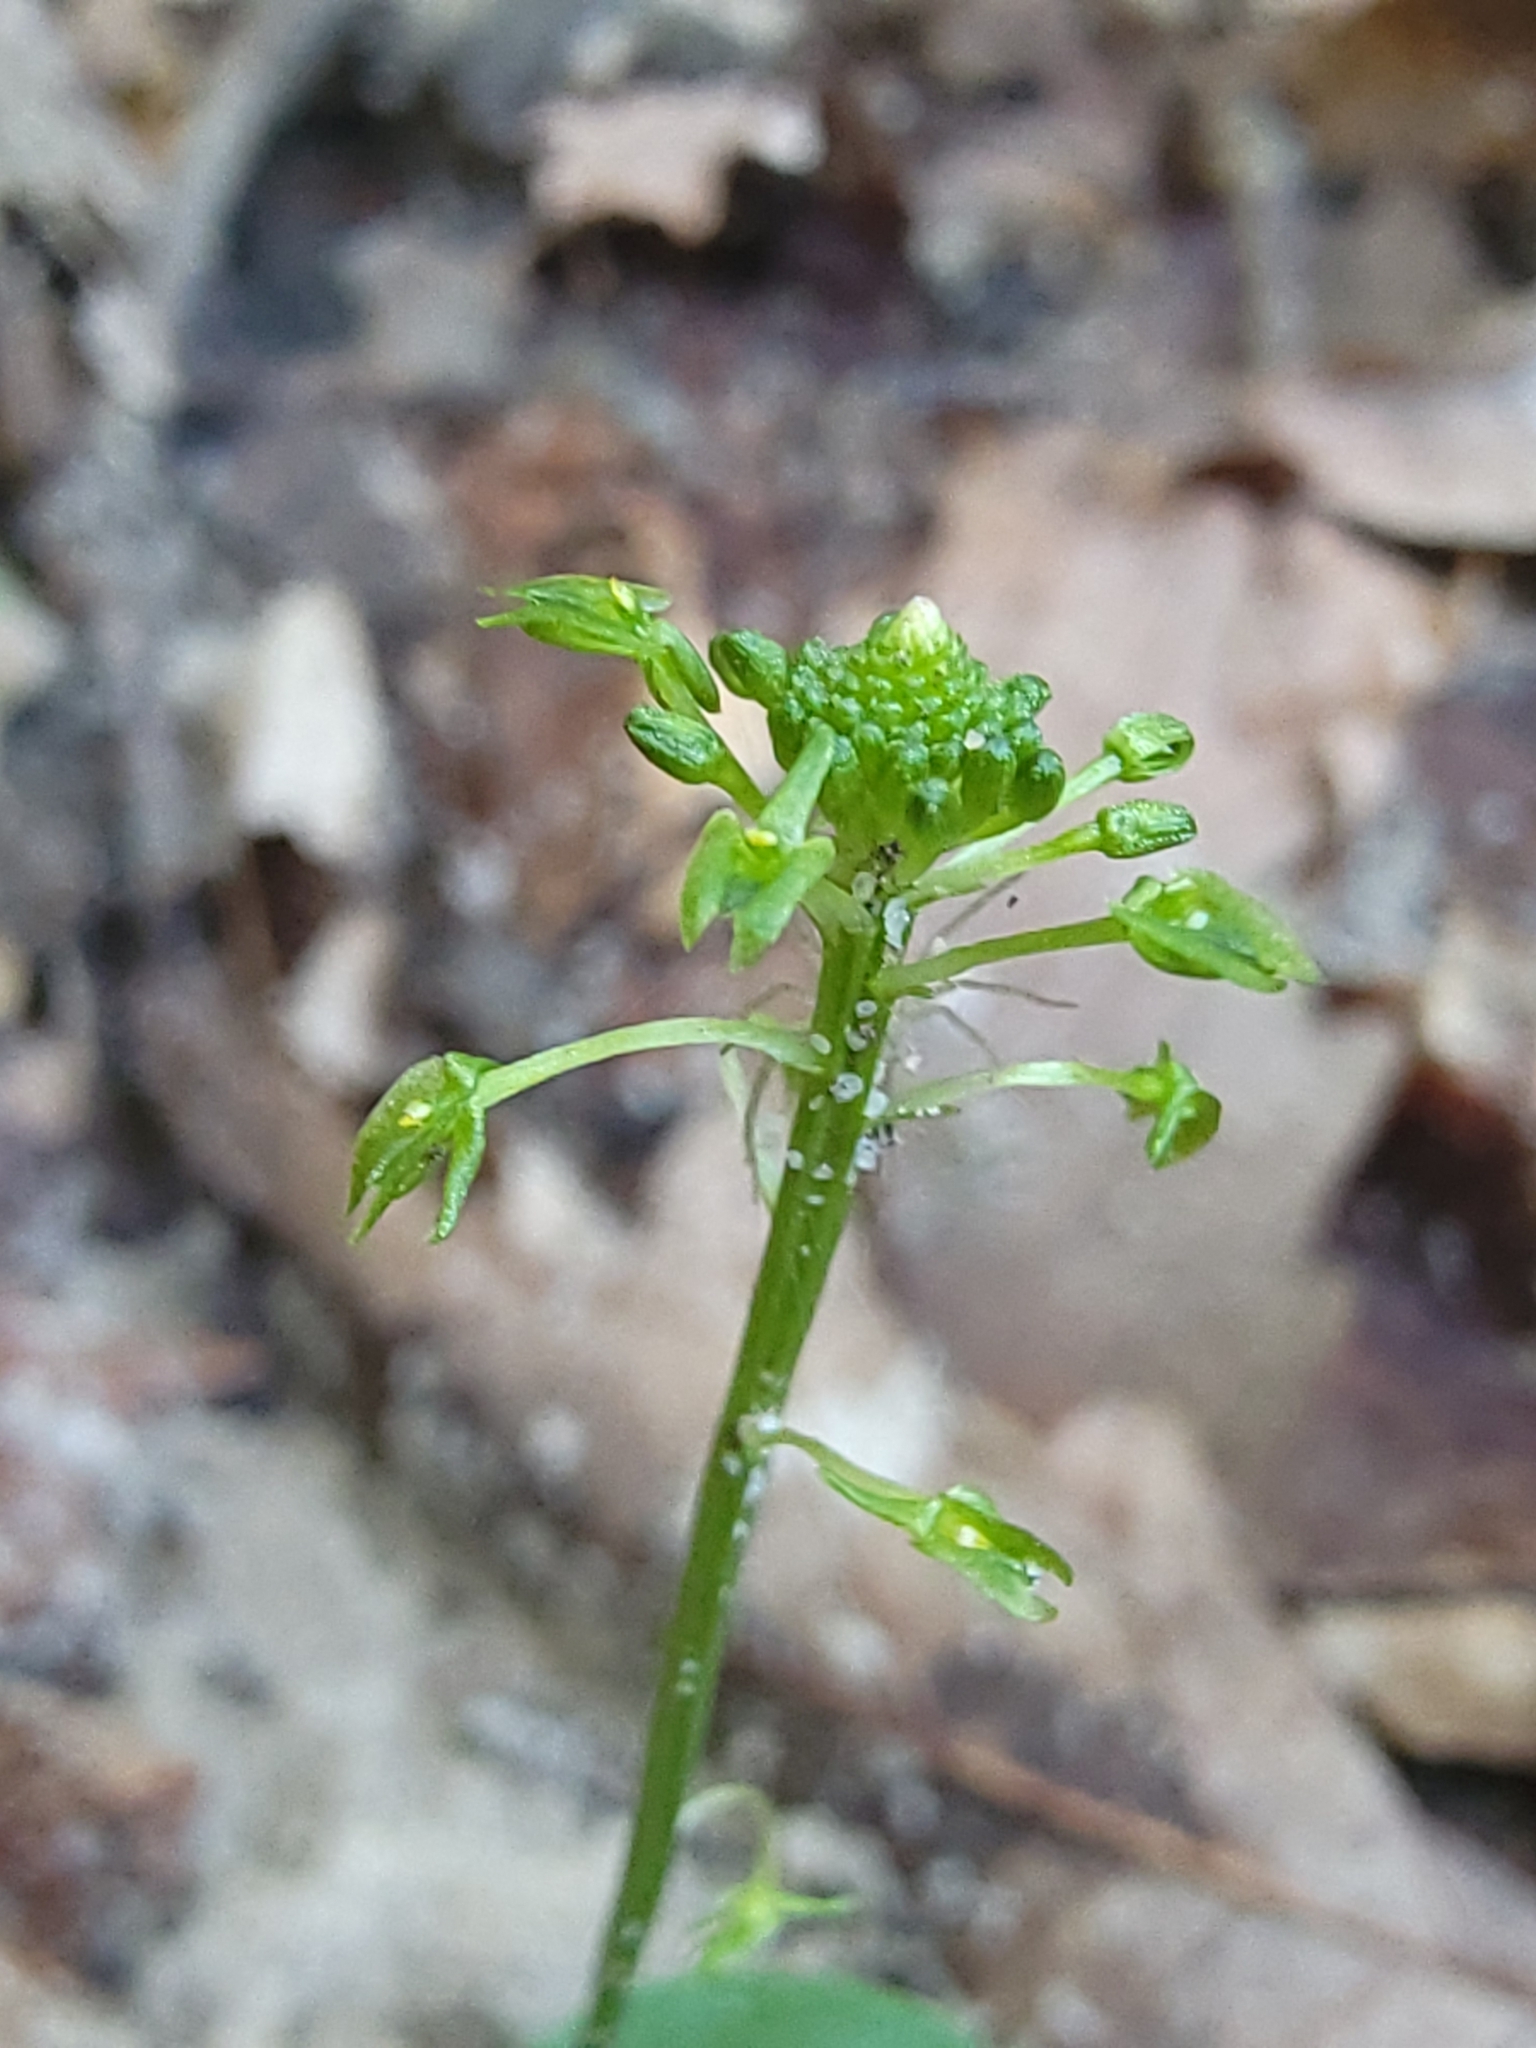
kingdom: Plantae
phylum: Tracheophyta
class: Liliopsida
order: Asparagales
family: Orchidaceae
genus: Malaxis
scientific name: Malaxis unifolia
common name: Green adder's-mouth
